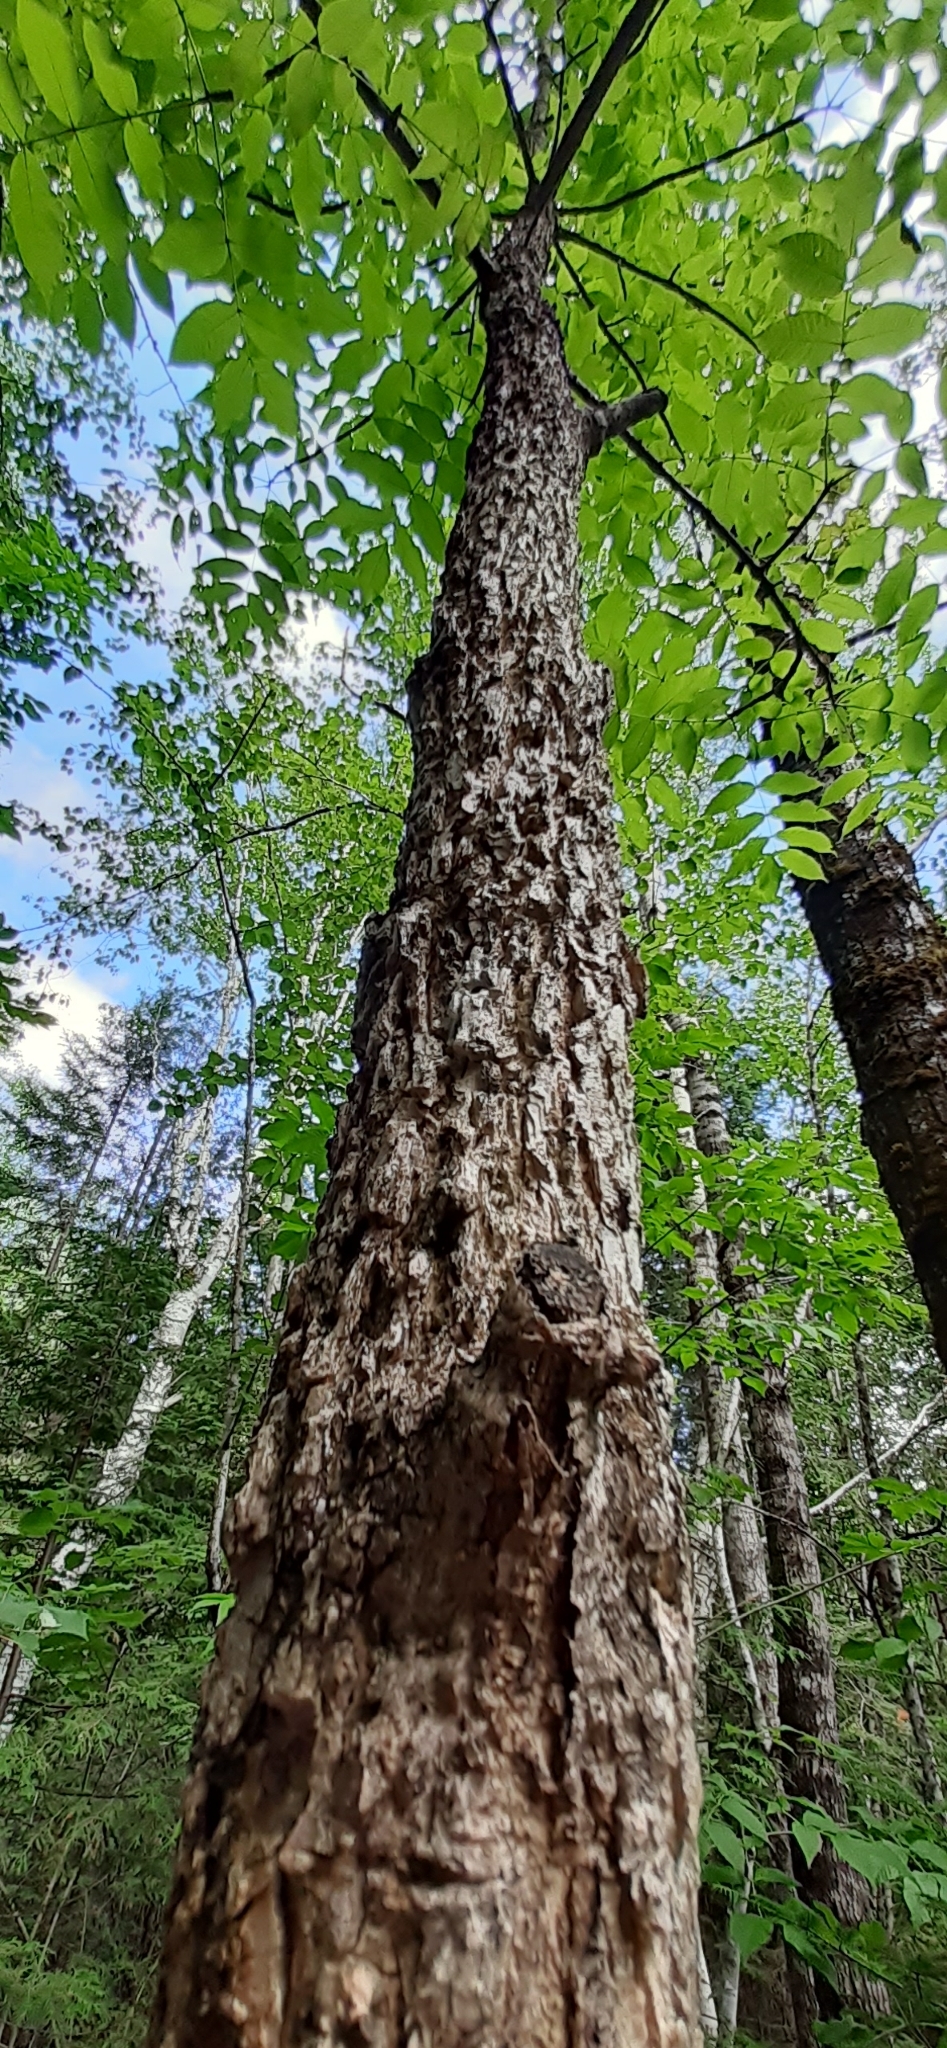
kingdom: Plantae
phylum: Tracheophyta
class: Magnoliopsida
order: Lamiales
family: Oleaceae
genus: Fraxinus
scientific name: Fraxinus nigra
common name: Black ash
